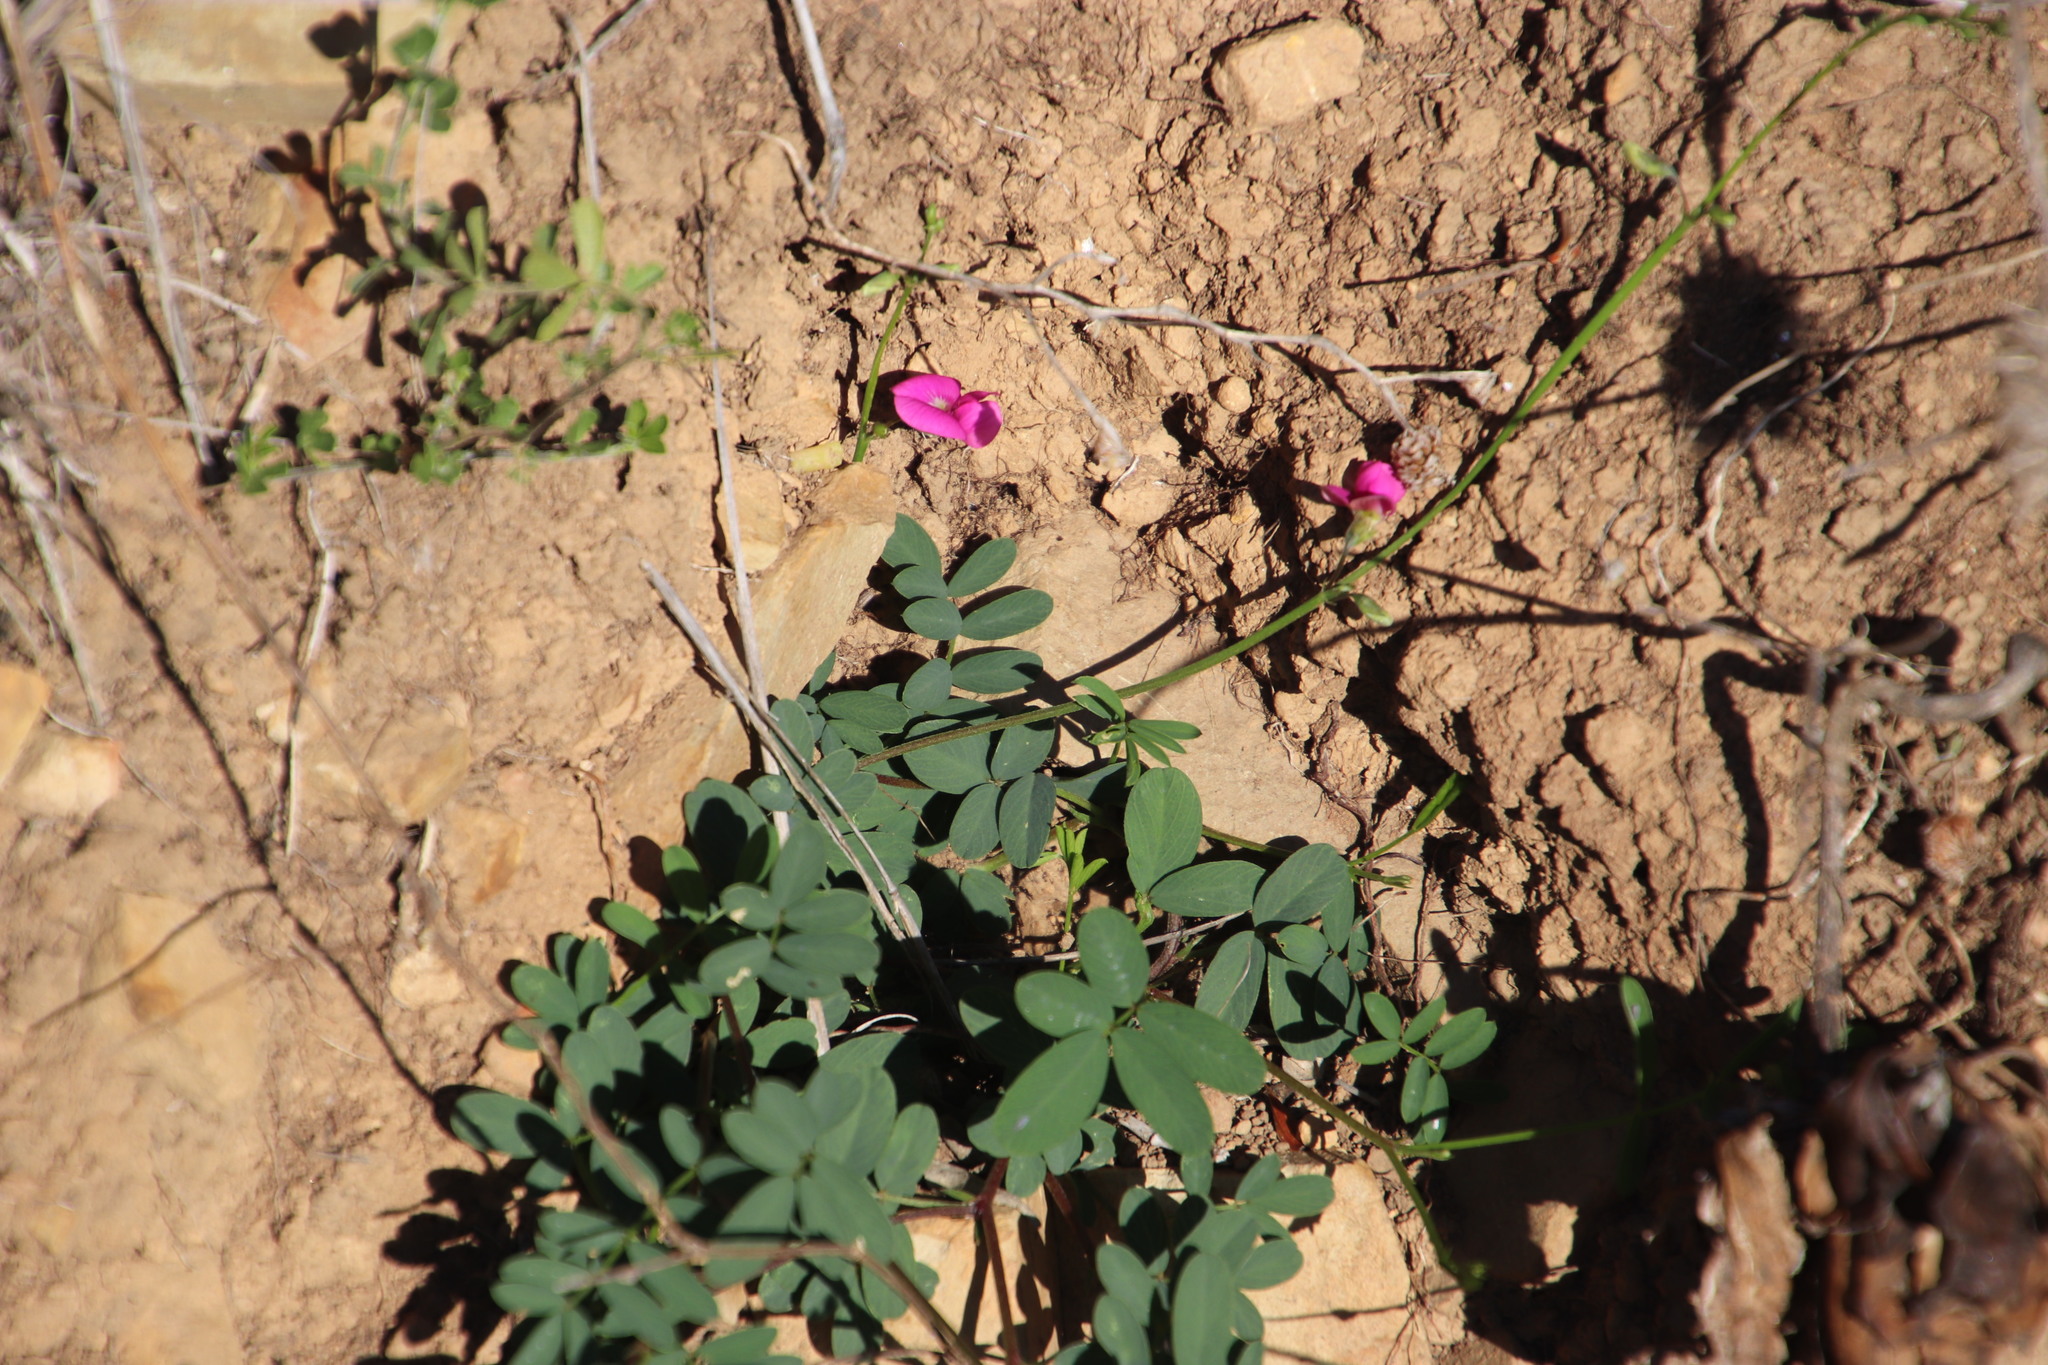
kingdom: Plantae
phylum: Tracheophyta
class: Magnoliopsida
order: Fabales
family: Fabaceae
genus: Tephrosia
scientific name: Tephrosia capensis
